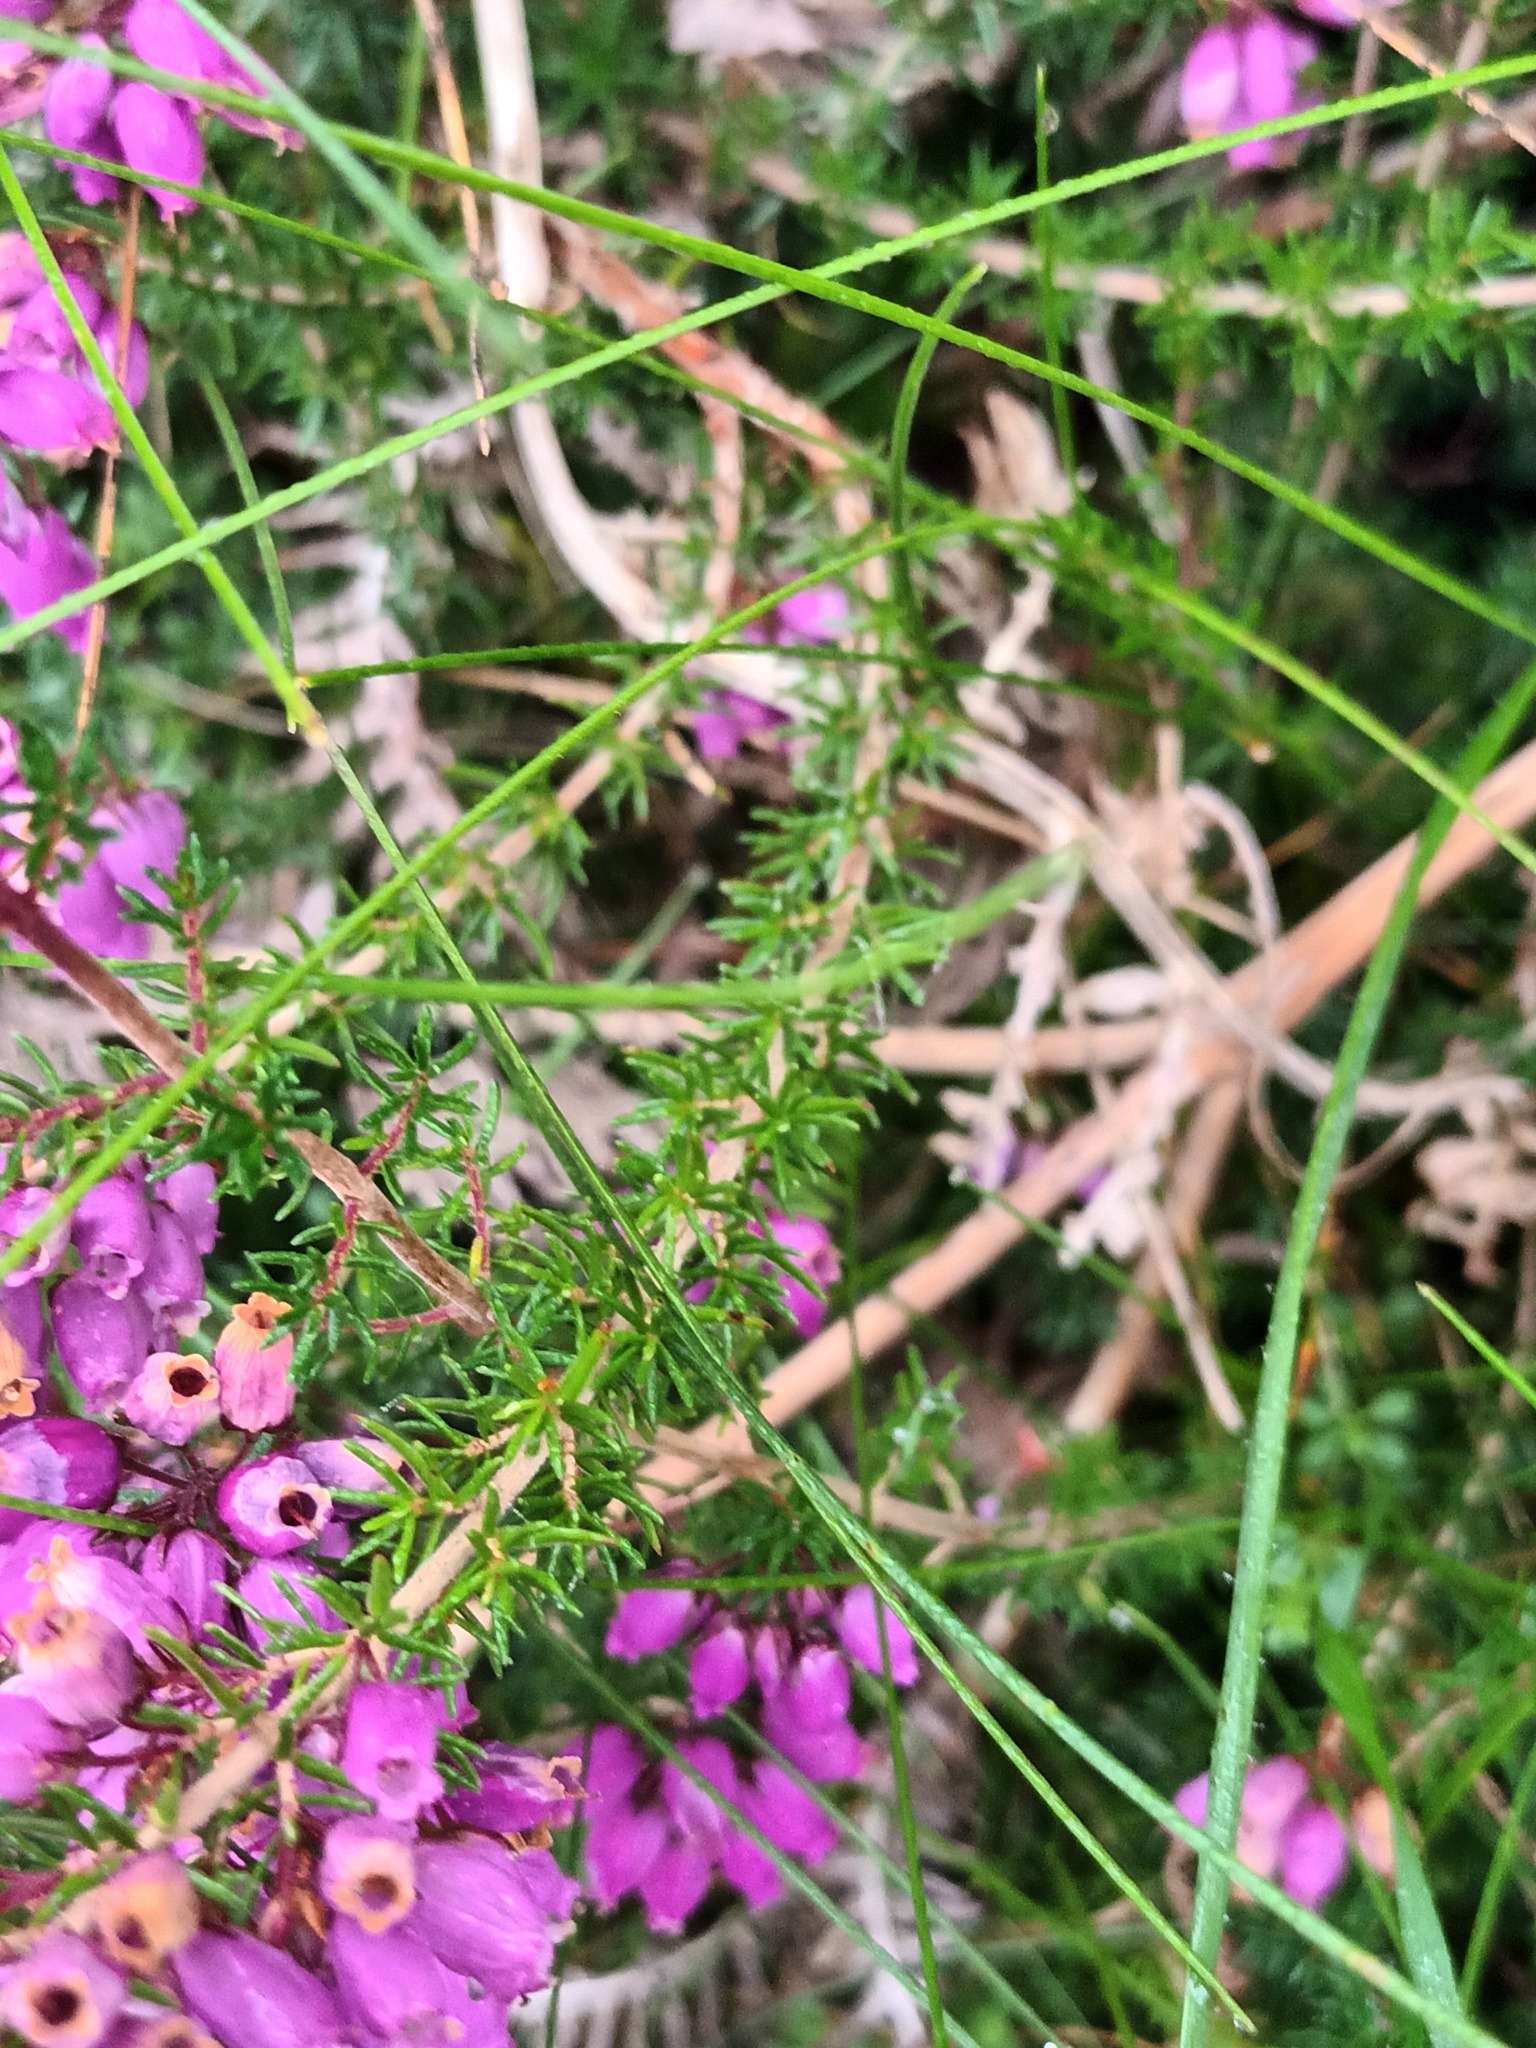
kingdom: Plantae
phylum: Tracheophyta
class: Magnoliopsida
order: Ericales
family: Ericaceae
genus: Erica
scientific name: Erica cinerea
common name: Bell heather
